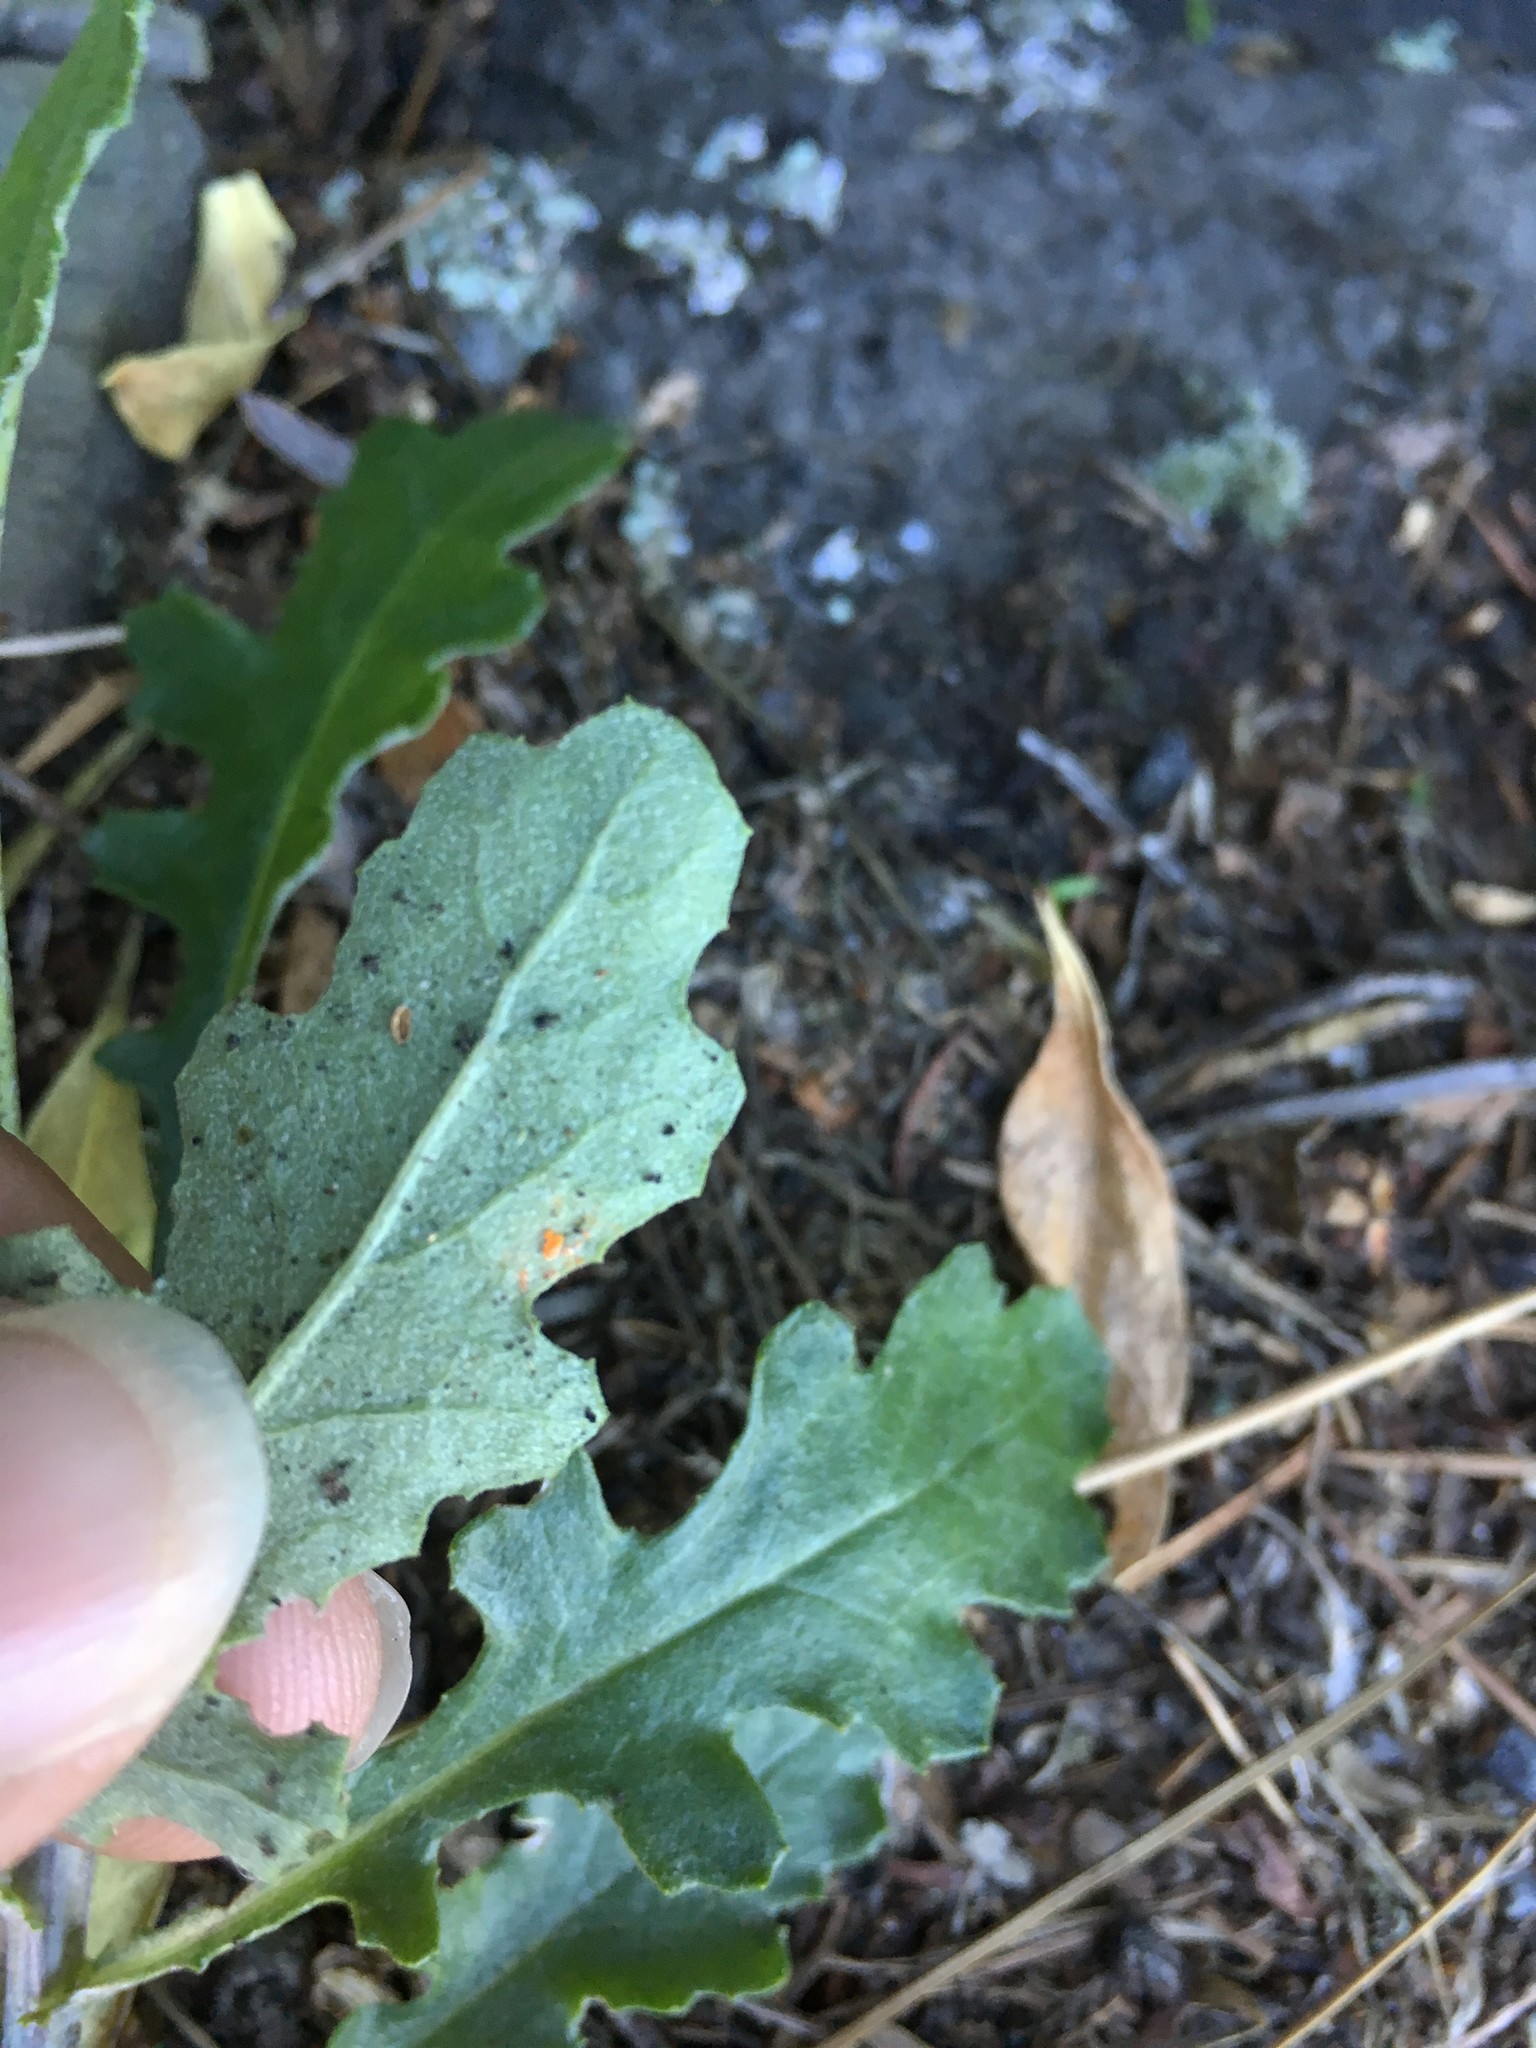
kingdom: Fungi
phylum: Basidiomycota
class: Pucciniomycetes
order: Pucciniales
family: Coleosporiaceae
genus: Coleosporium
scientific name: Coleosporium tussilaginis
